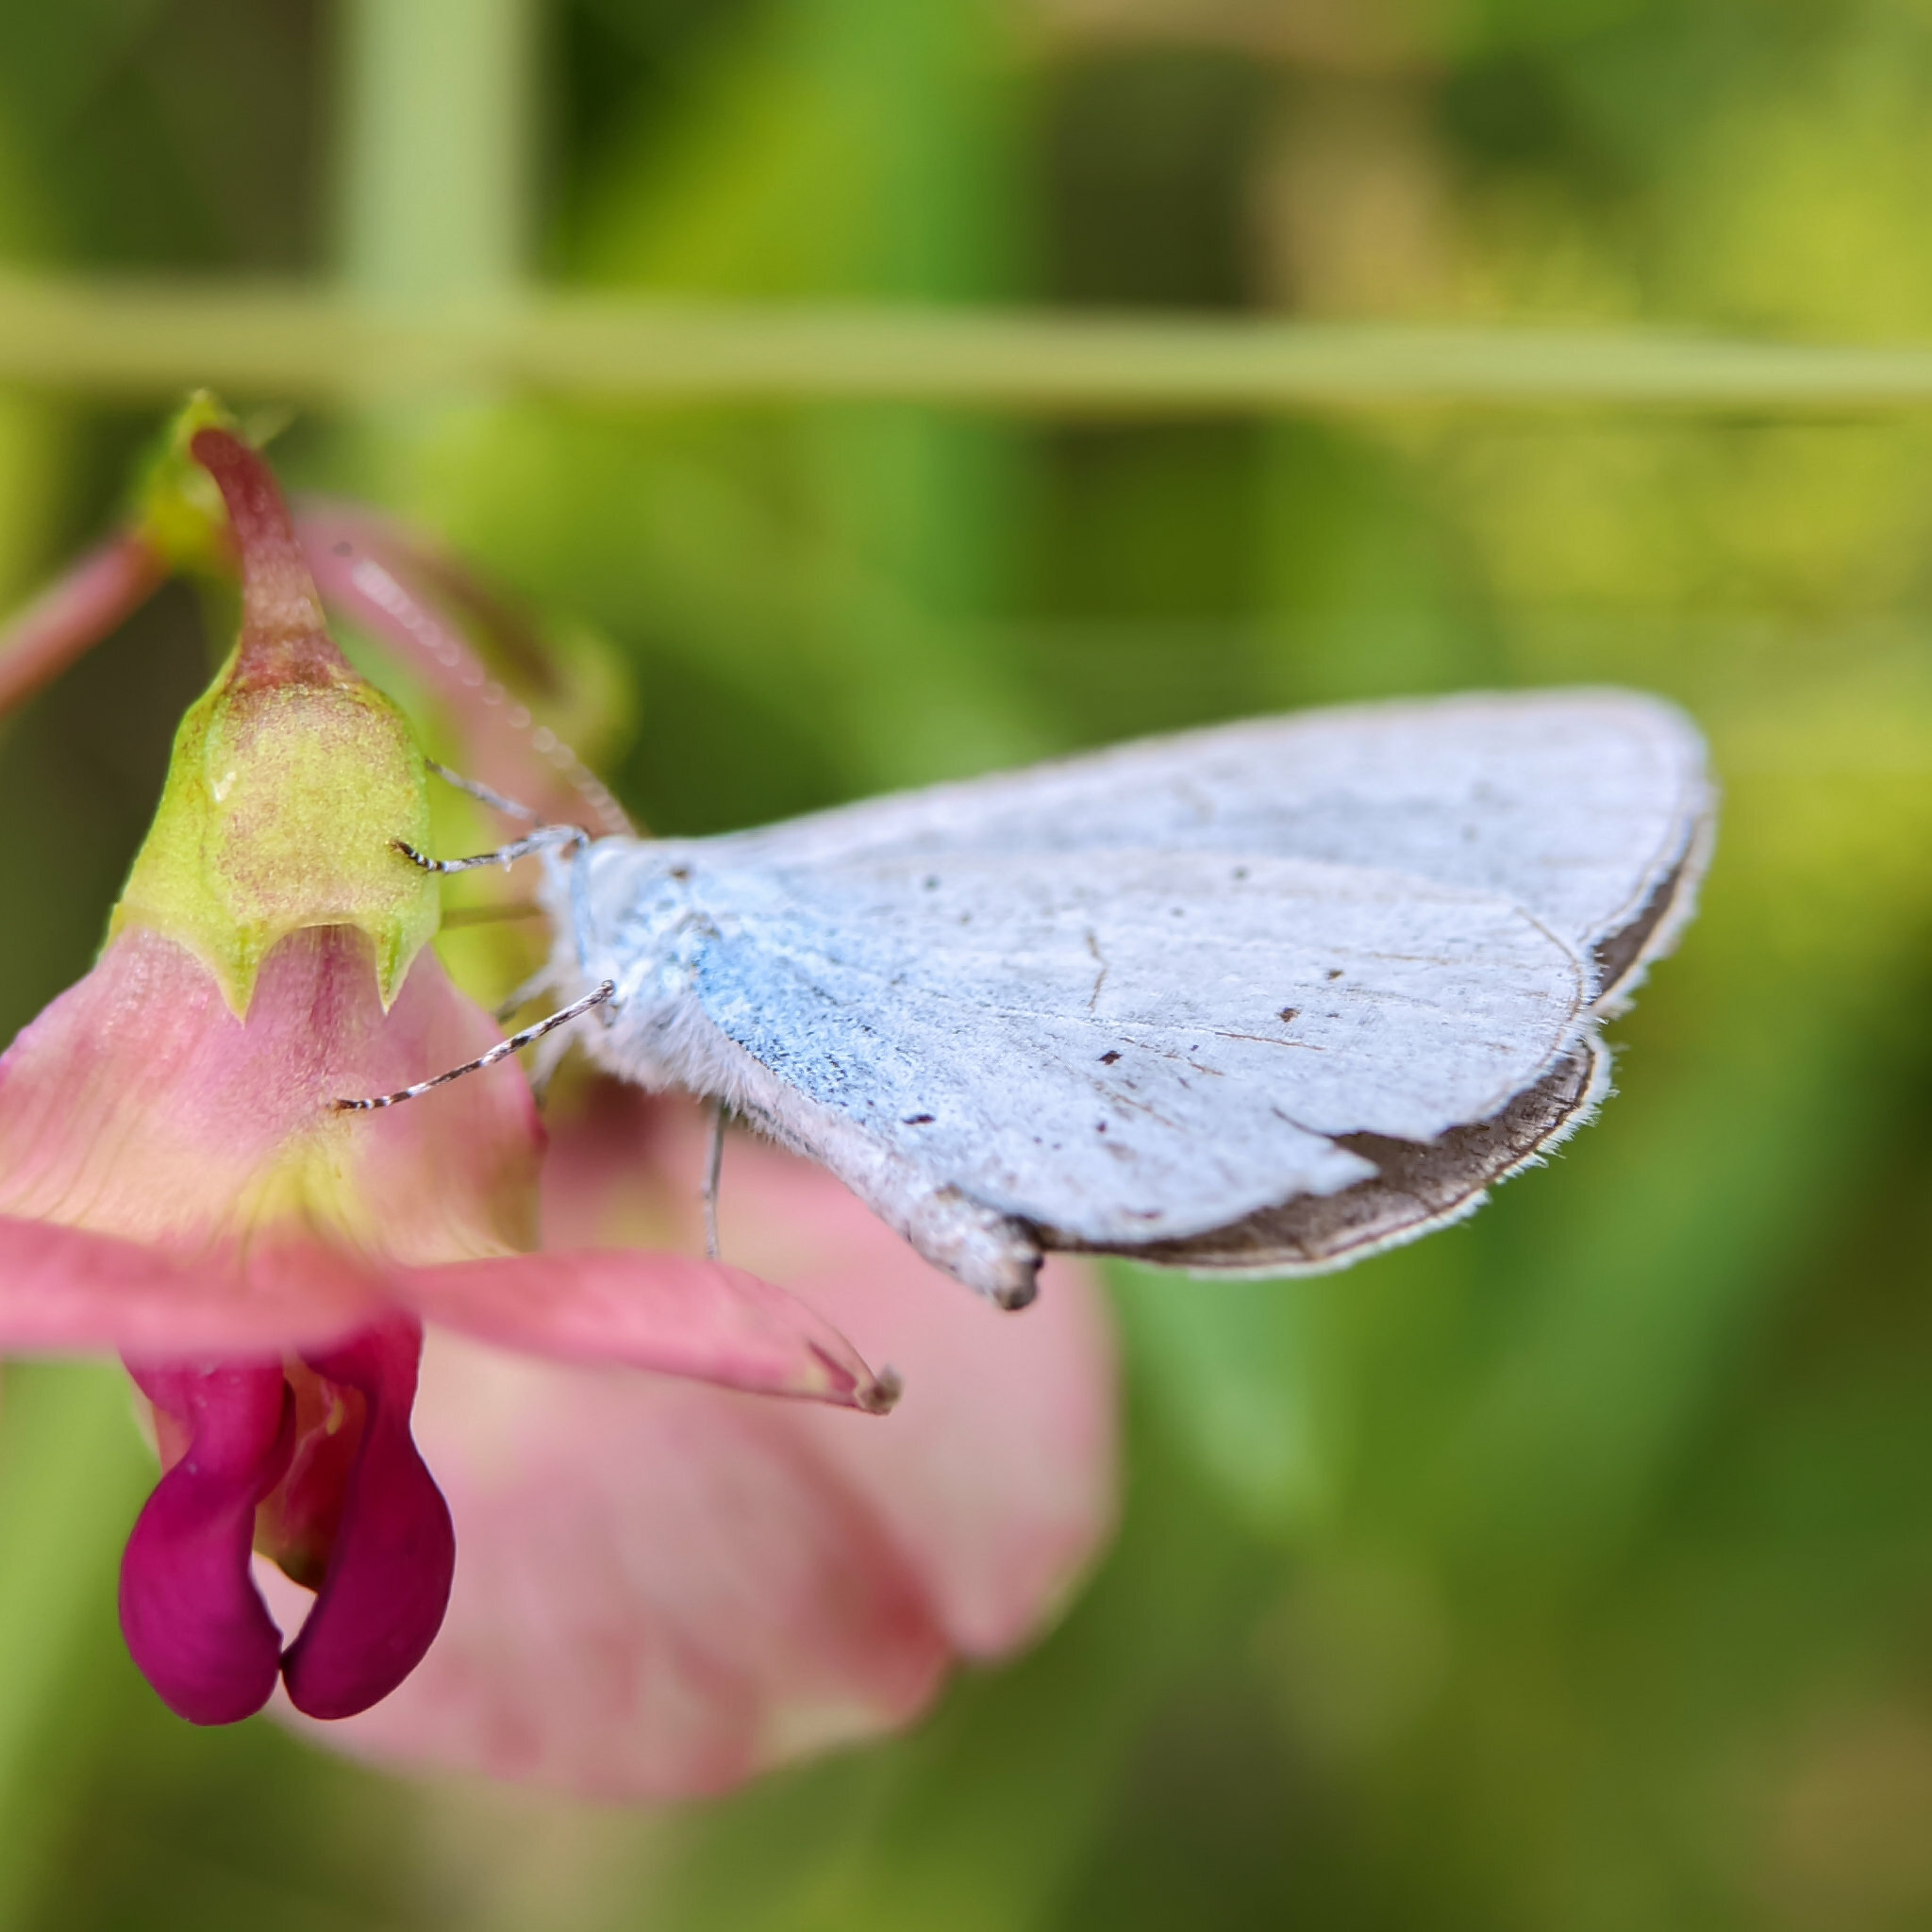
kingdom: Animalia
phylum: Arthropoda
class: Insecta
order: Lepidoptera
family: Lycaenidae
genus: Celastrina
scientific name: Celastrina argiolus
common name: Holly blue
